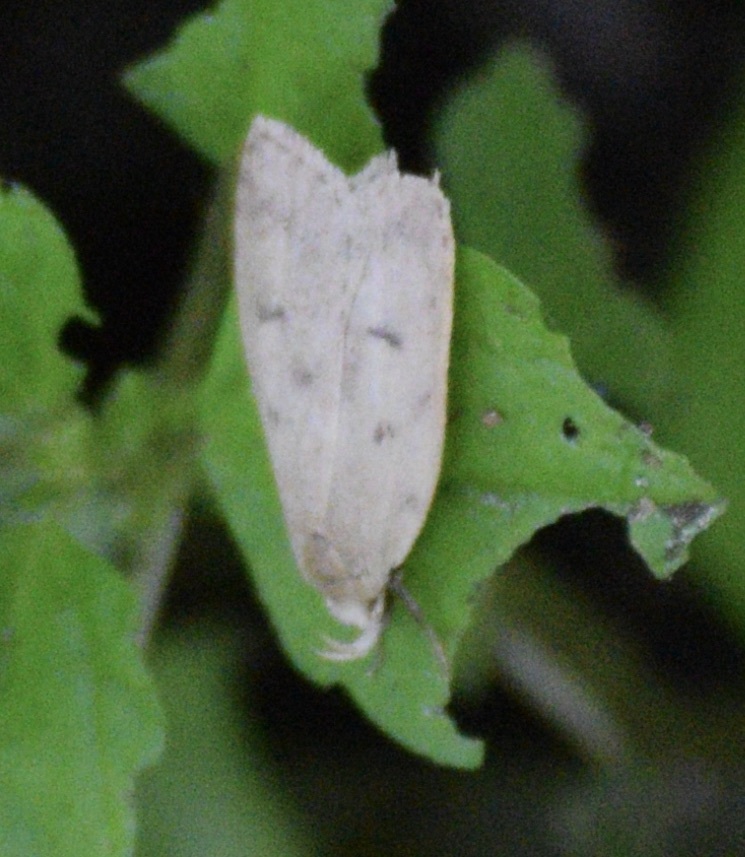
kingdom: Animalia
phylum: Arthropoda
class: Insecta
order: Lepidoptera
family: Peleopodidae
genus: Machimia
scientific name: Machimia tentoriferella
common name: Gold-striped leaftier moth
